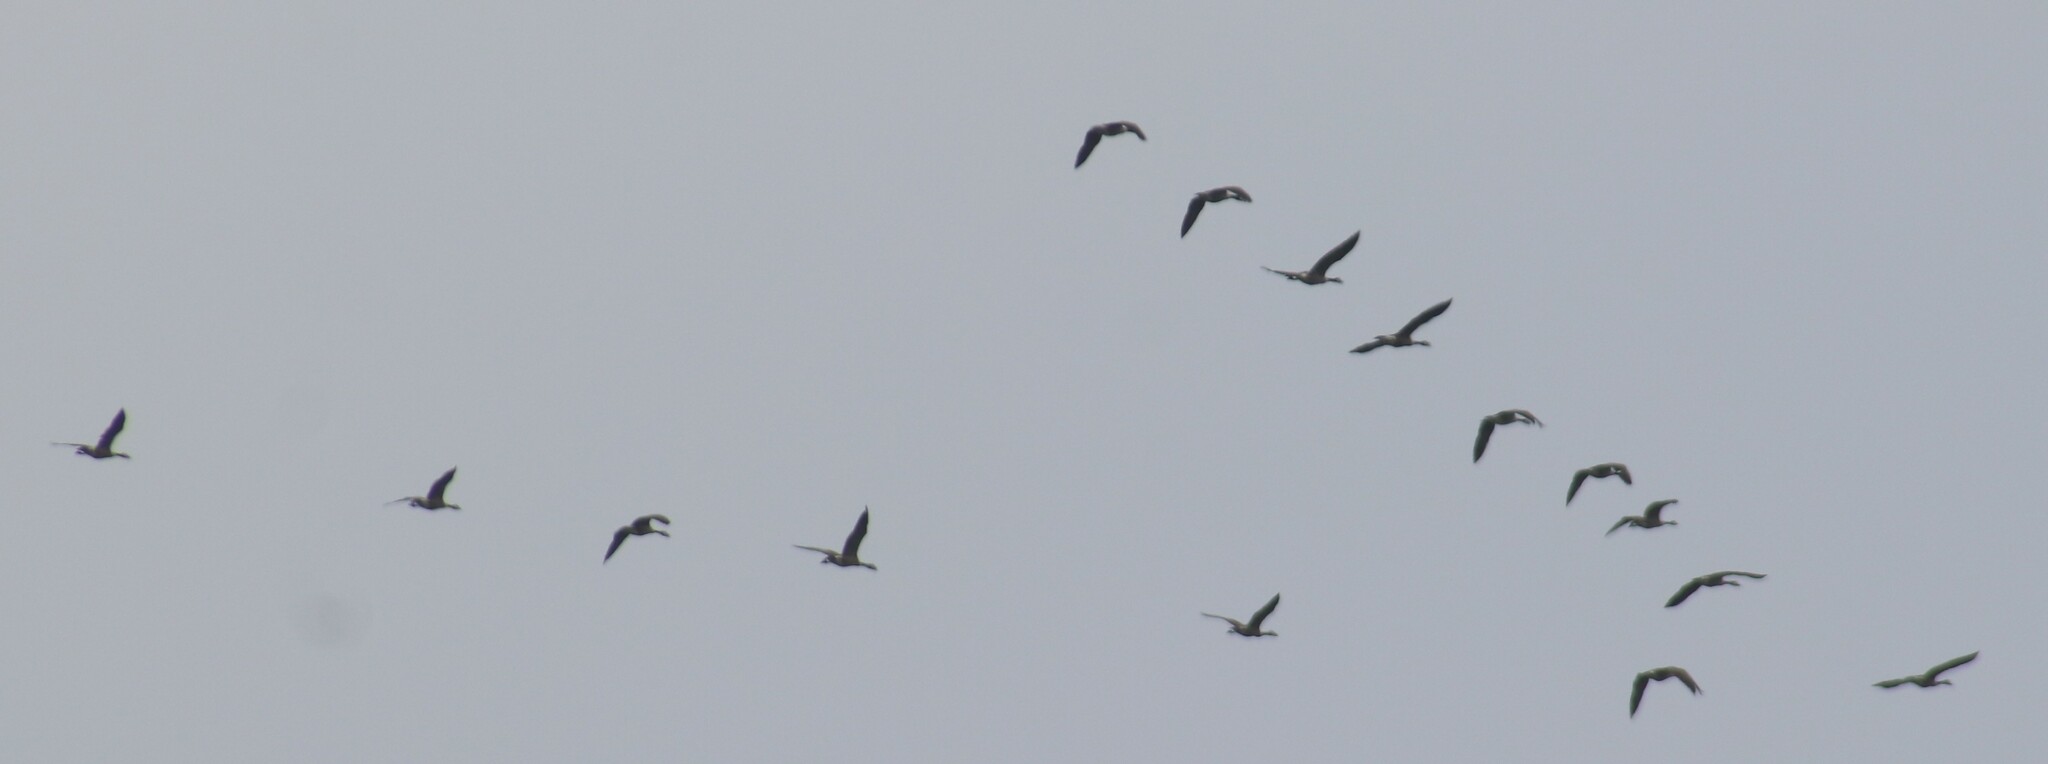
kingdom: Animalia
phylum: Chordata
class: Aves
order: Anseriformes
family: Anatidae
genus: Branta
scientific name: Branta canadensis
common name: Canada goose
